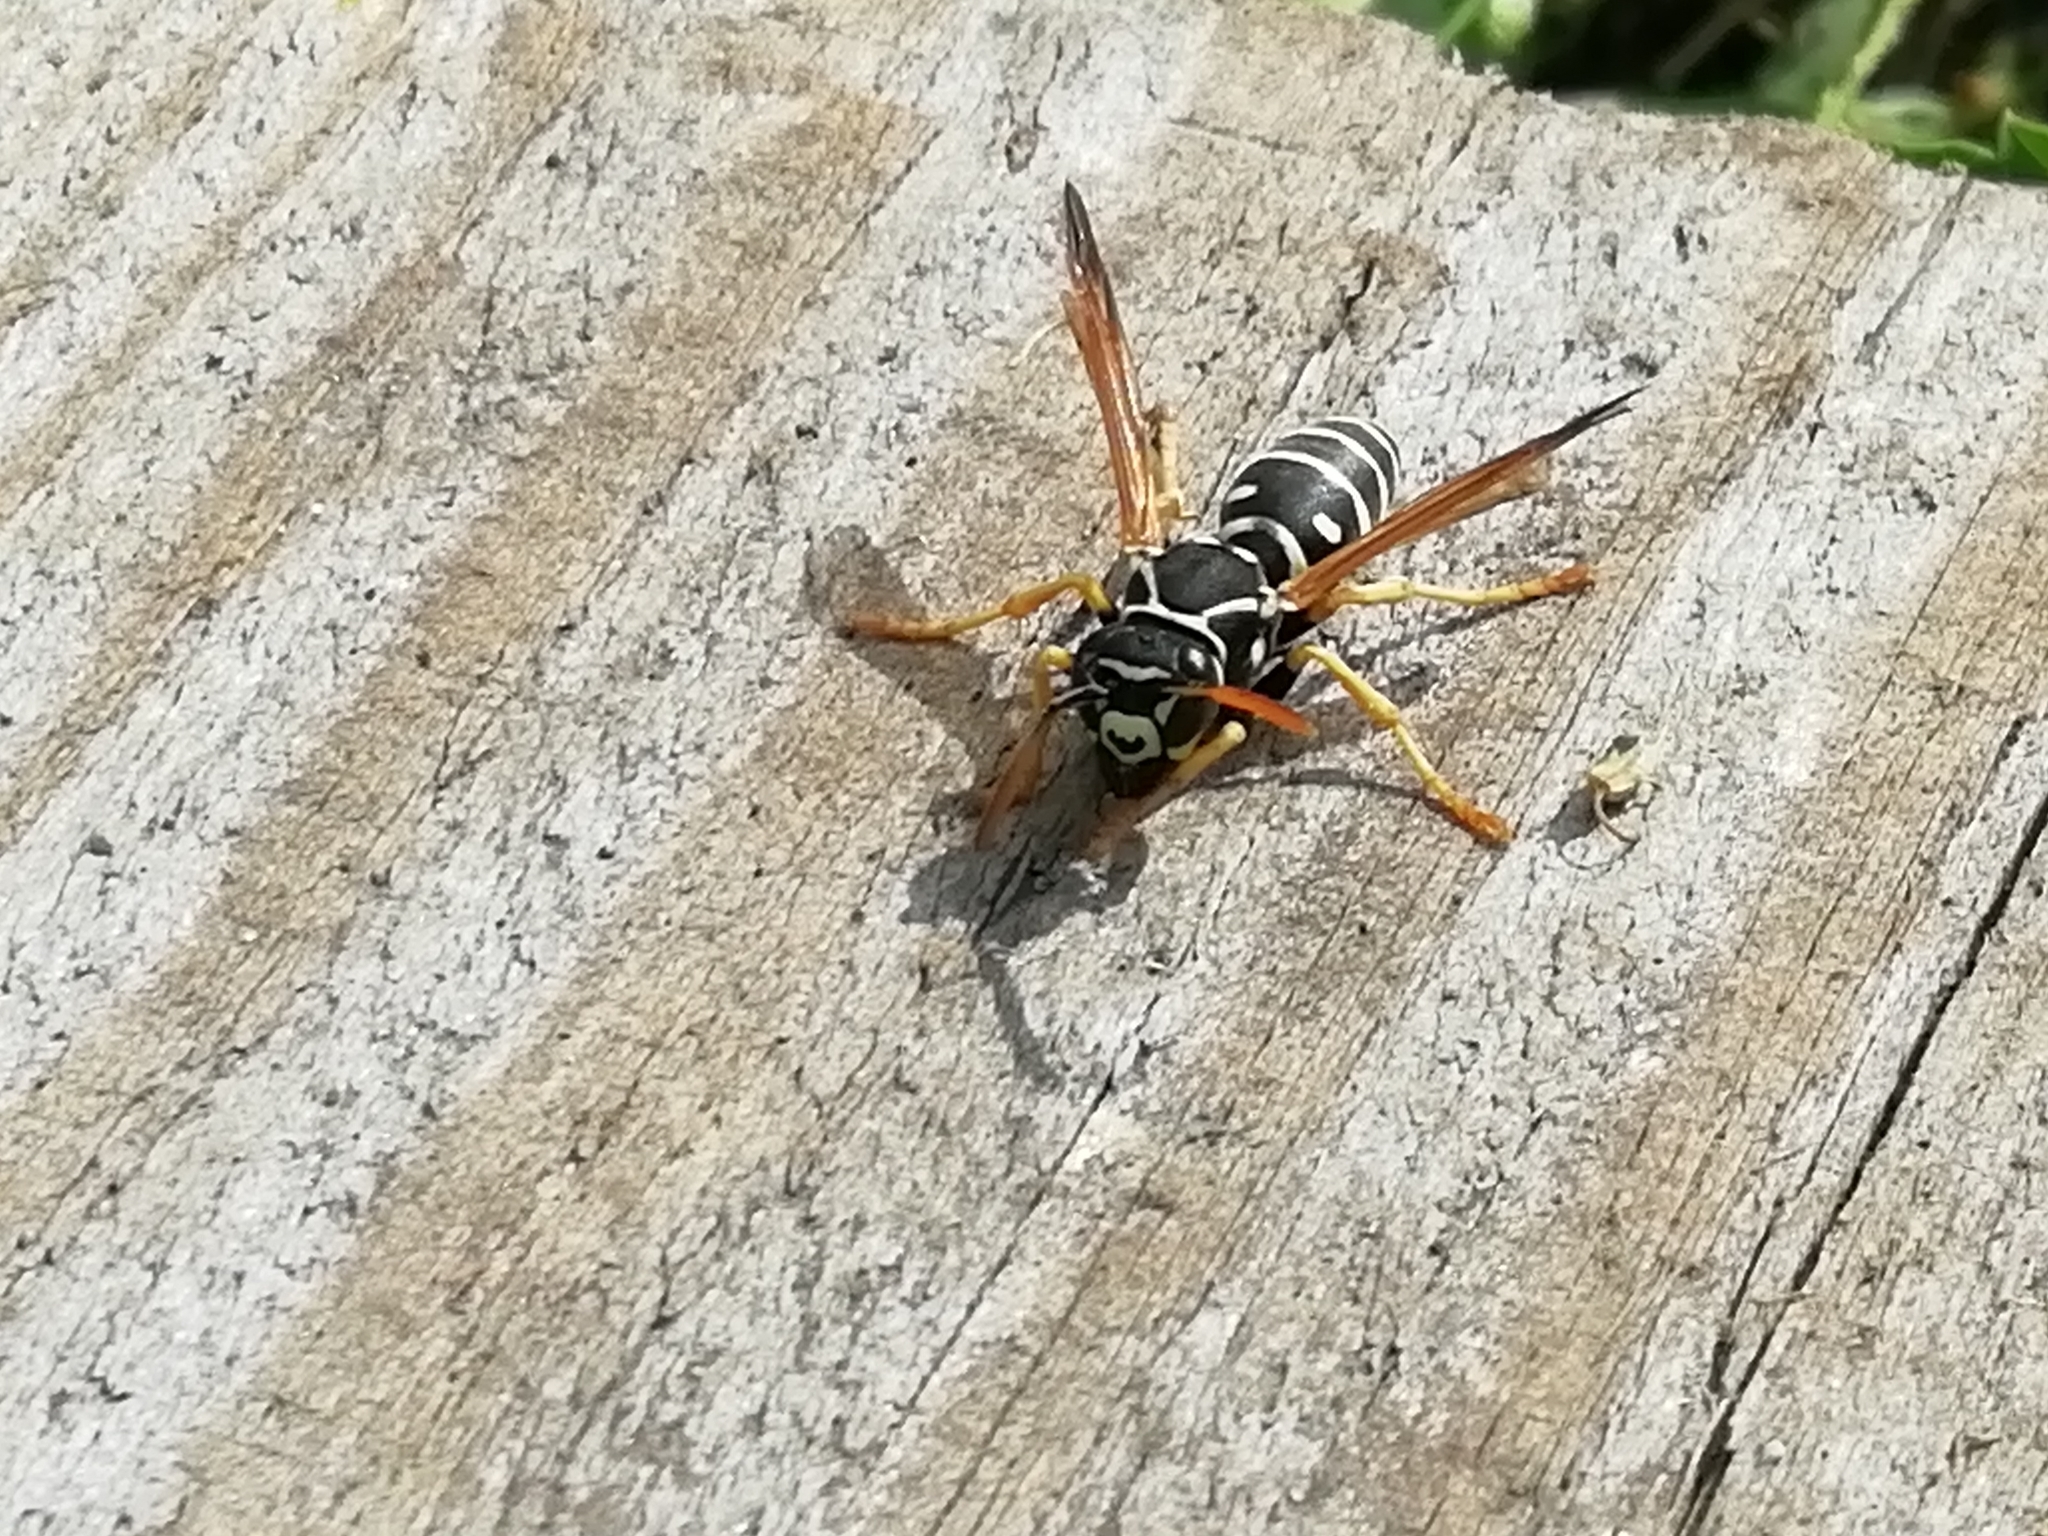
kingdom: Animalia
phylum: Arthropoda
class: Insecta
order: Hymenoptera
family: Eumenidae
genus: Polistes
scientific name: Polistes nimpha
